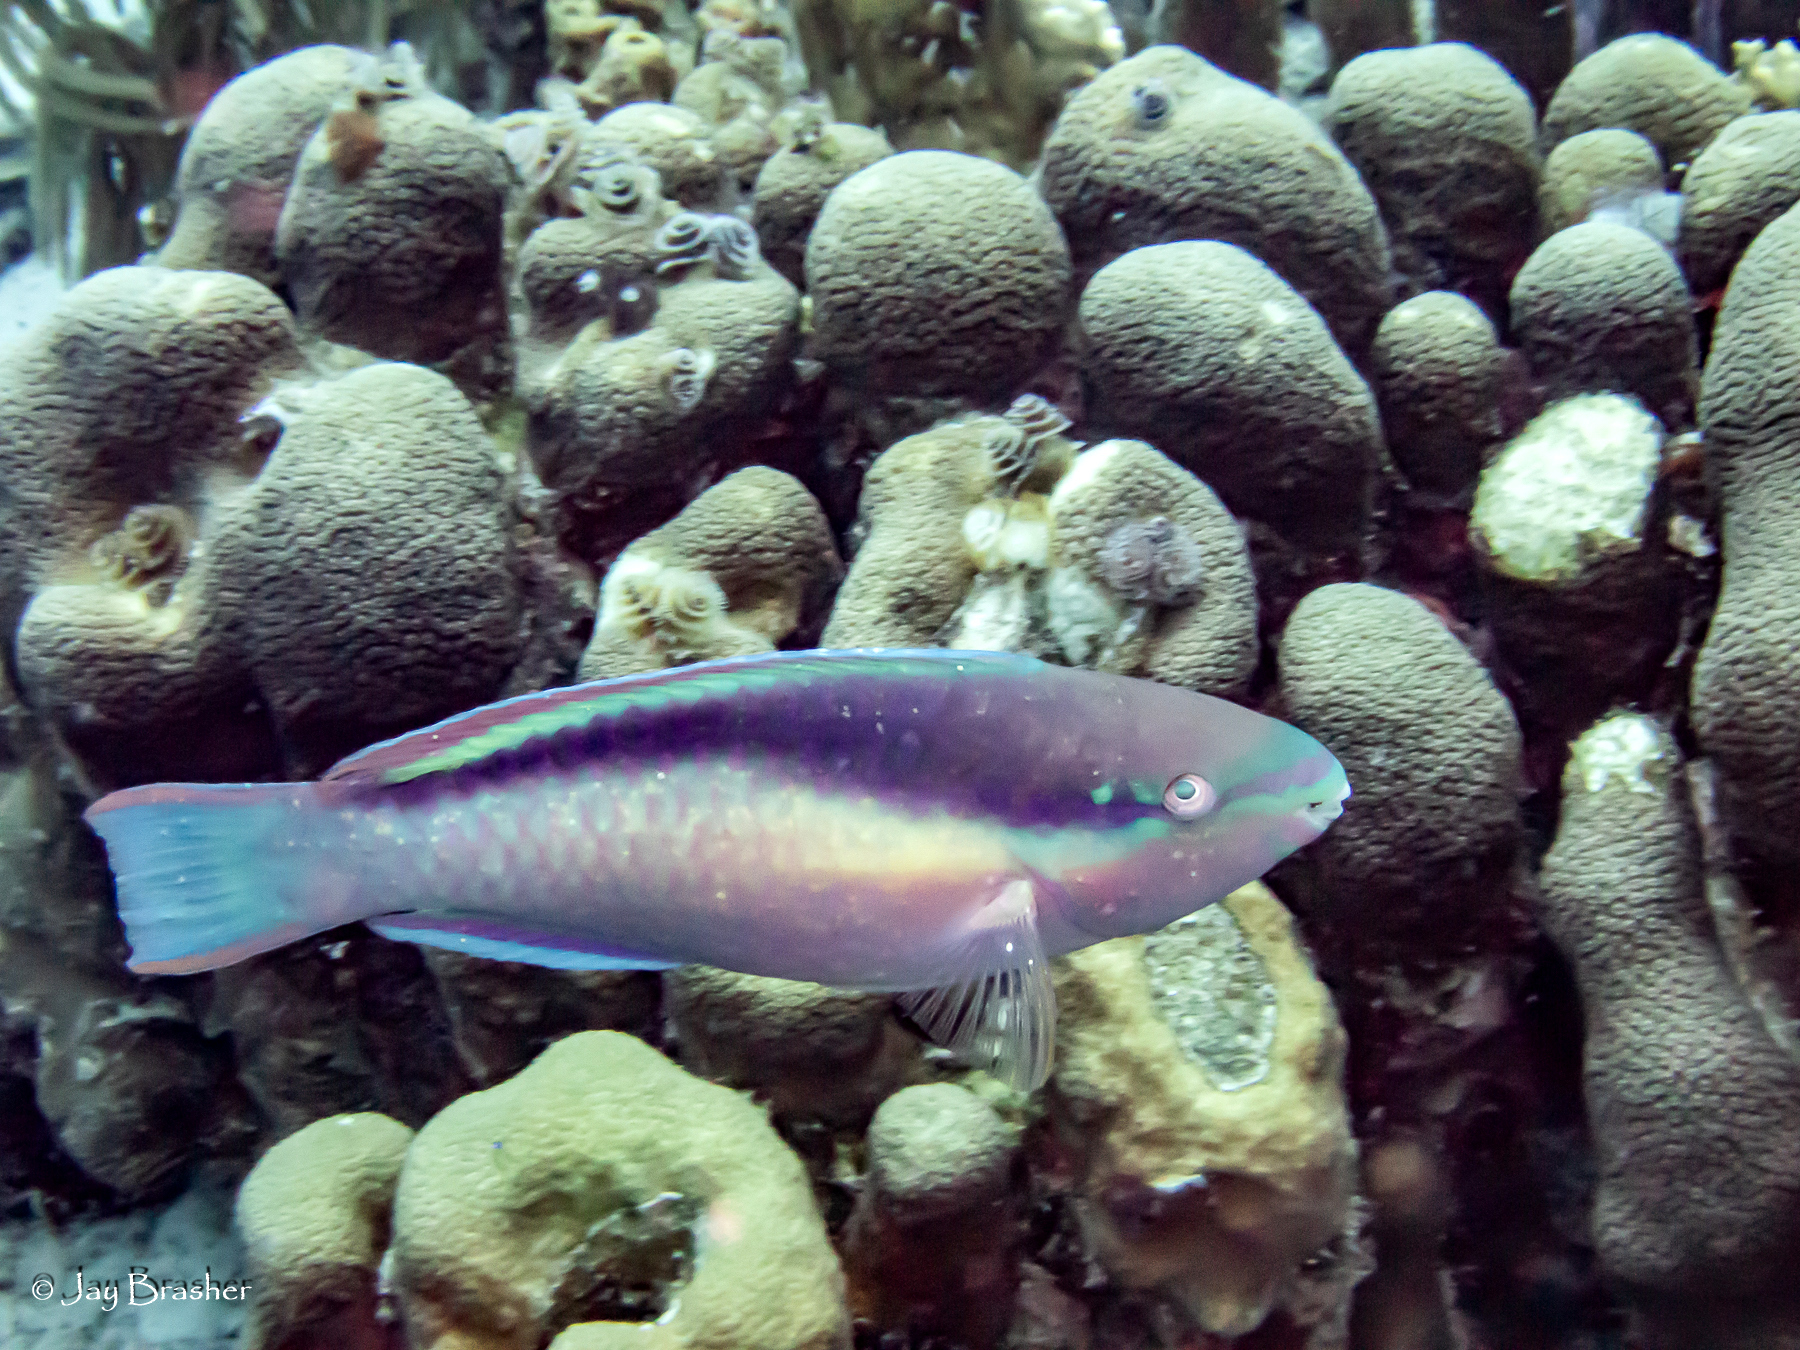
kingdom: Animalia
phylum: Chordata
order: Perciformes
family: Scaridae
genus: Scarus
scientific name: Scarus taeniopterus
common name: Princess parrotfish
